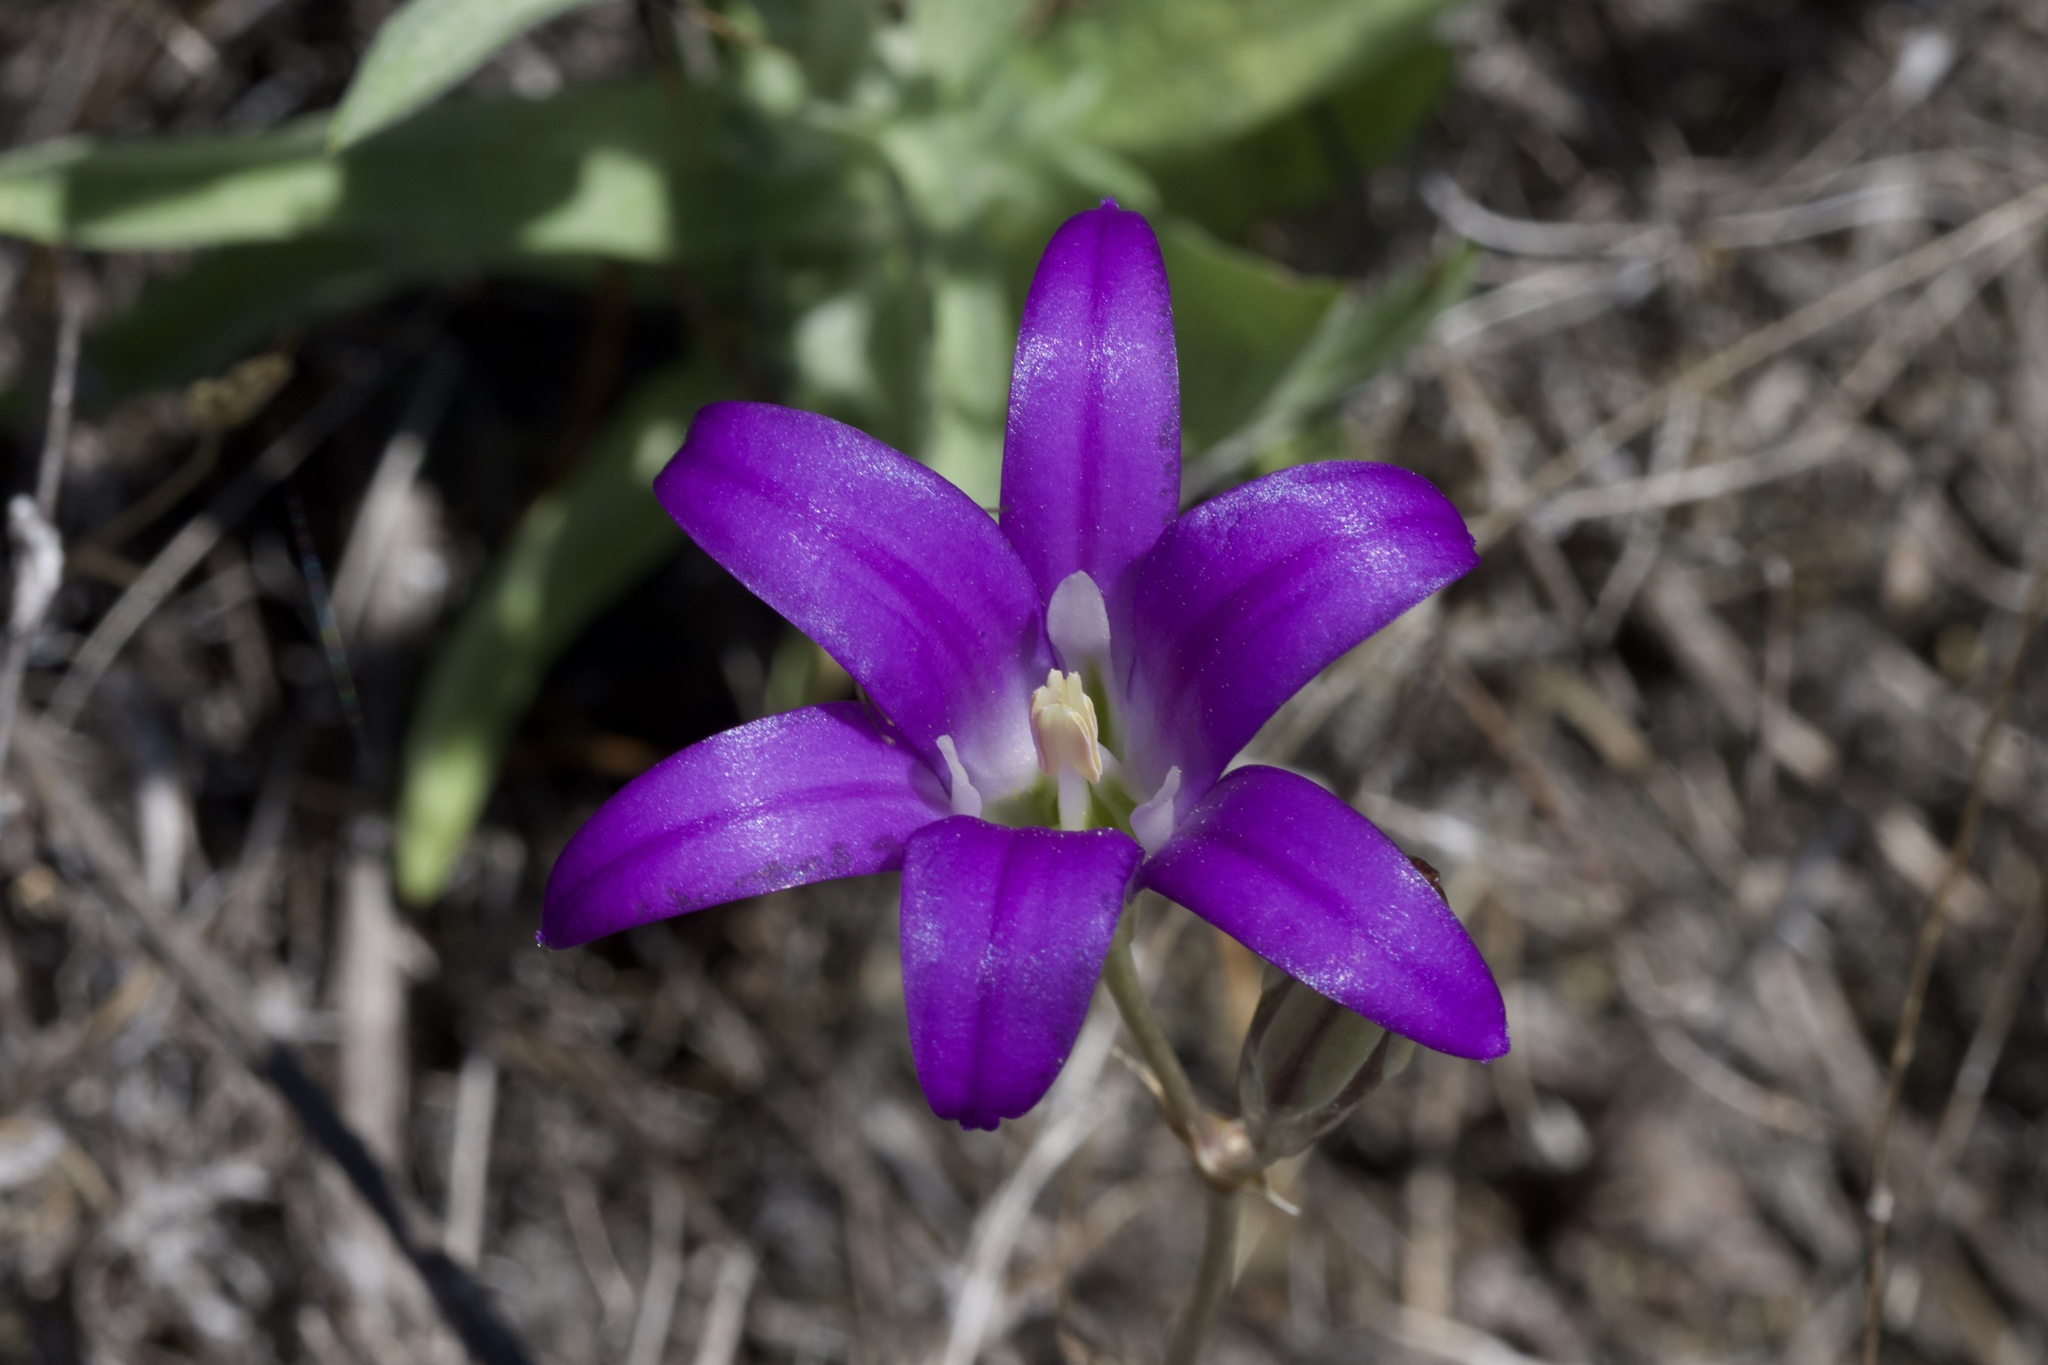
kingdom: Plantae
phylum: Tracheophyta
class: Liliopsida
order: Asparagales
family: Asparagaceae
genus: Brodiaea
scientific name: Brodiaea elegans
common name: Elegant cluster-lily
